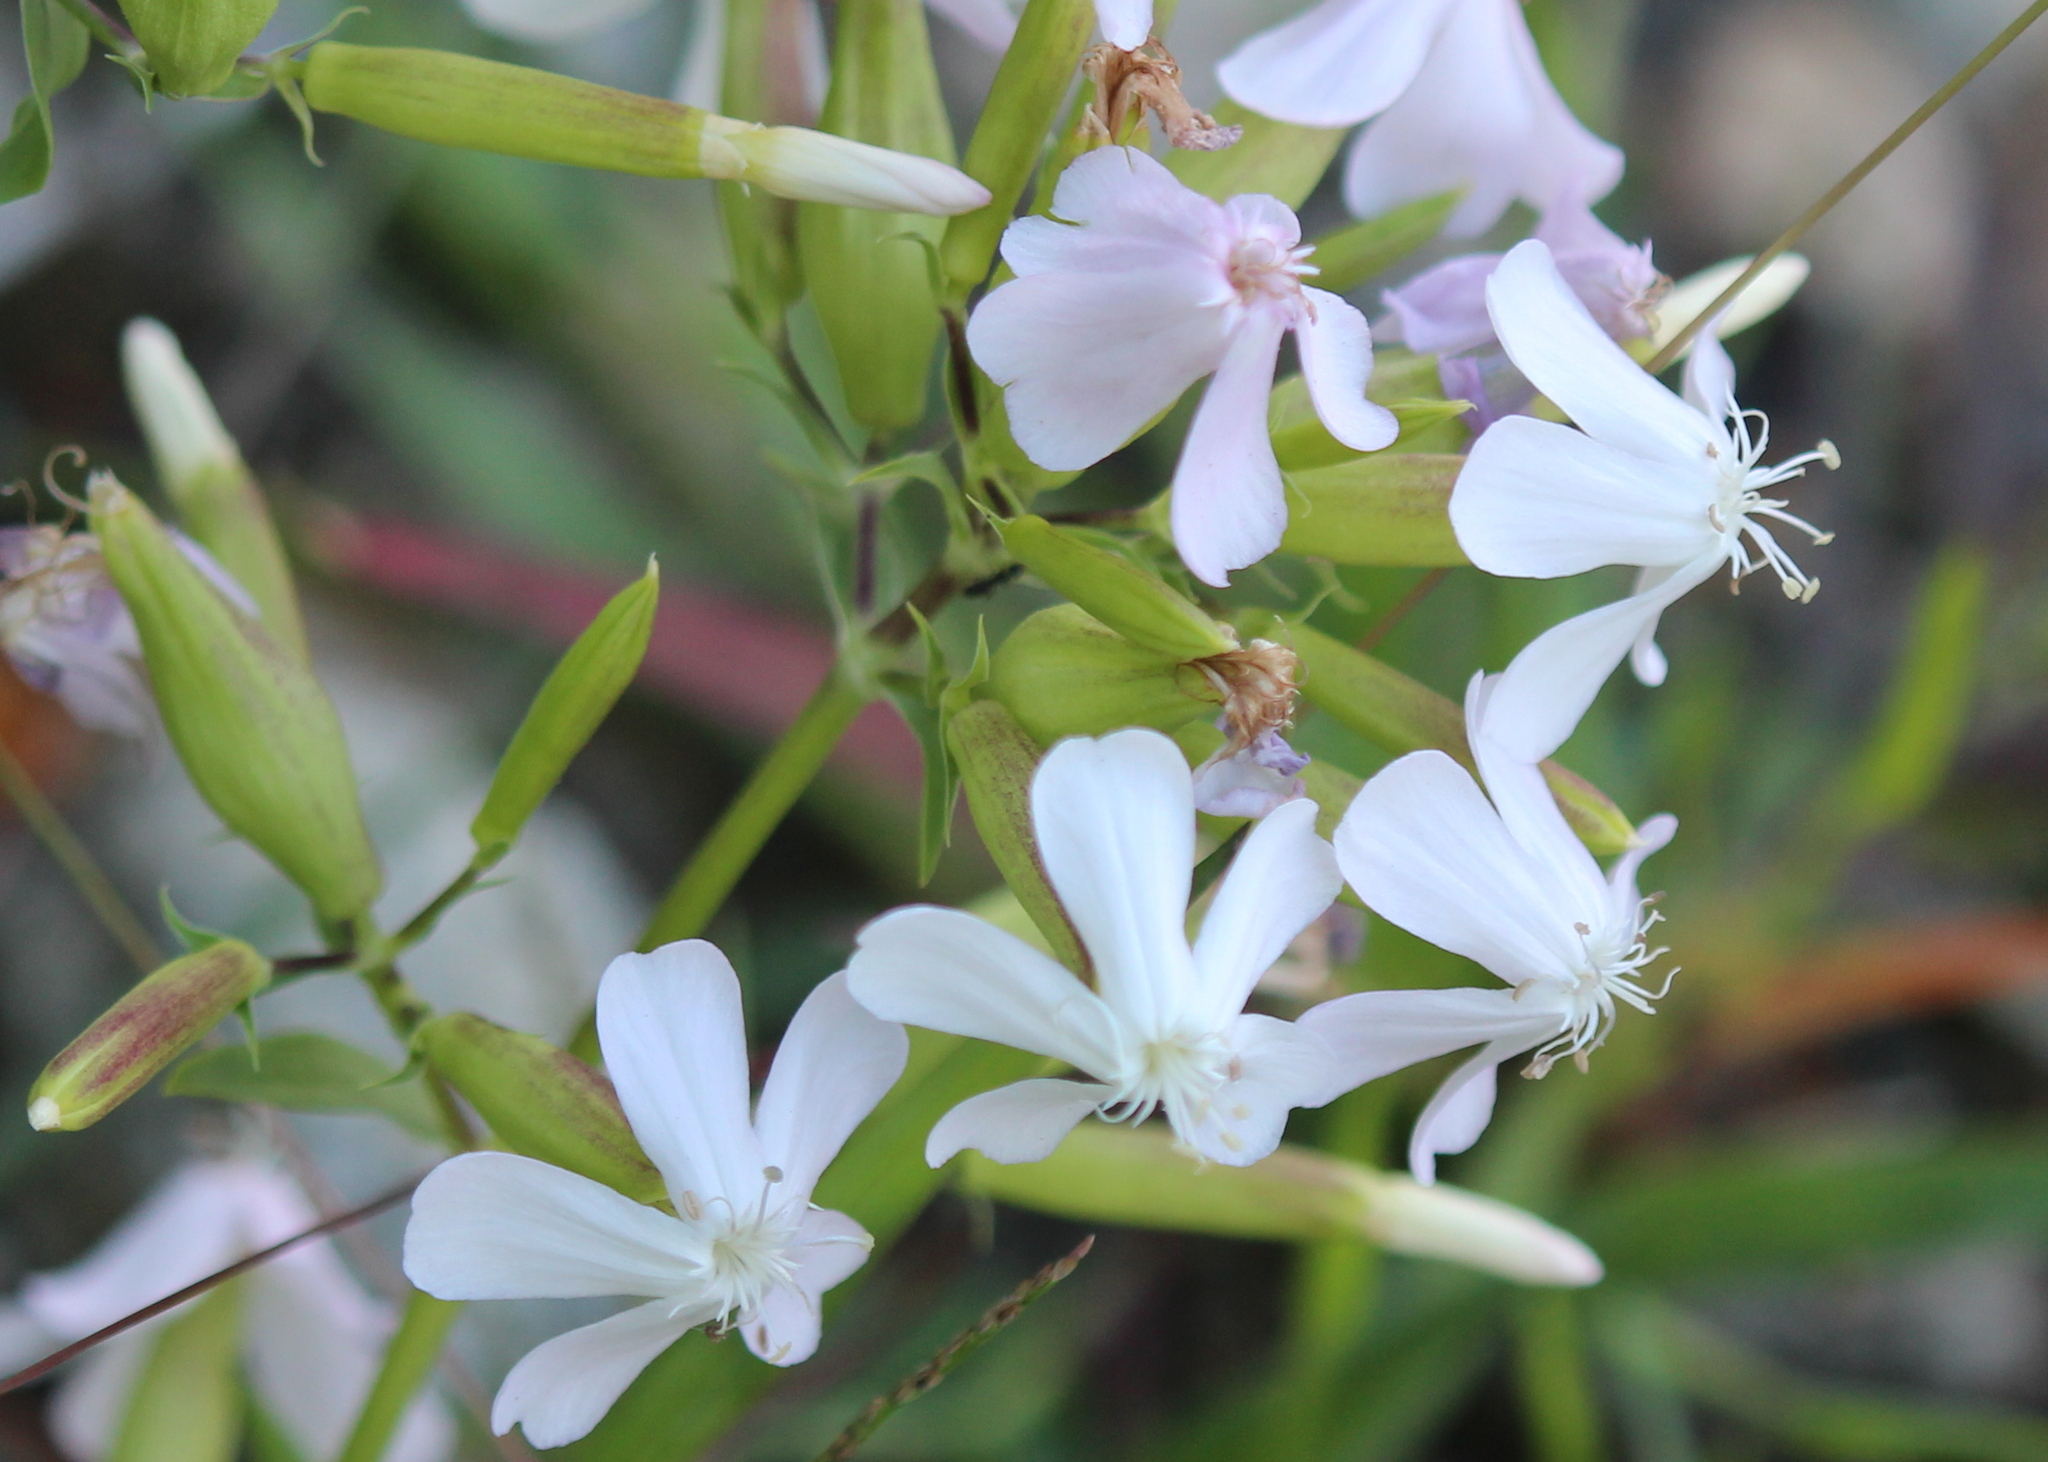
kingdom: Plantae
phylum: Tracheophyta
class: Magnoliopsida
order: Caryophyllales
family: Caryophyllaceae
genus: Saponaria
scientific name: Saponaria officinalis
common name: Soapwort
